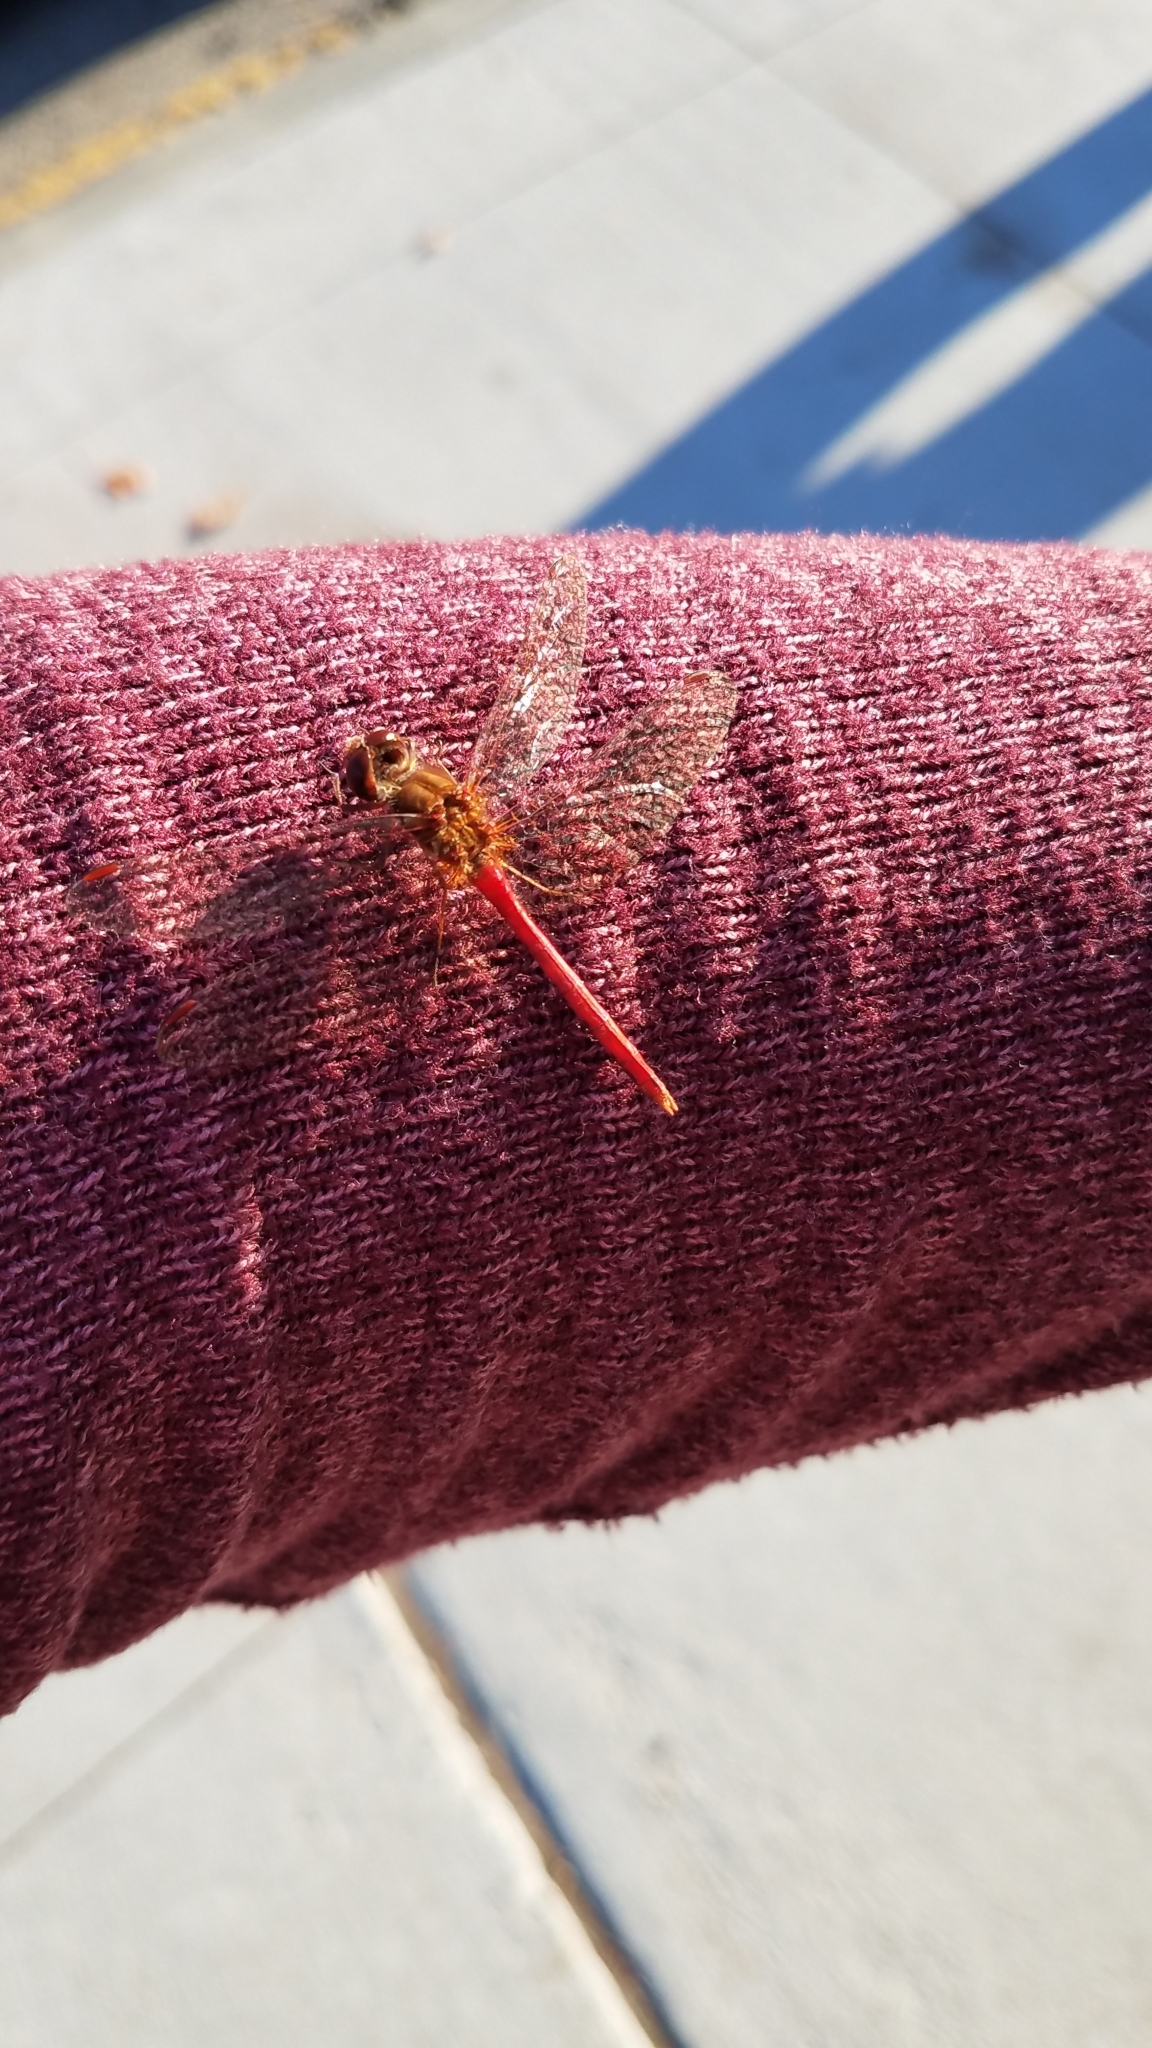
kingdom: Animalia
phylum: Arthropoda
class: Insecta
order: Odonata
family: Libellulidae
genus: Sympetrum
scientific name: Sympetrum vicinum
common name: Autumn meadowhawk
